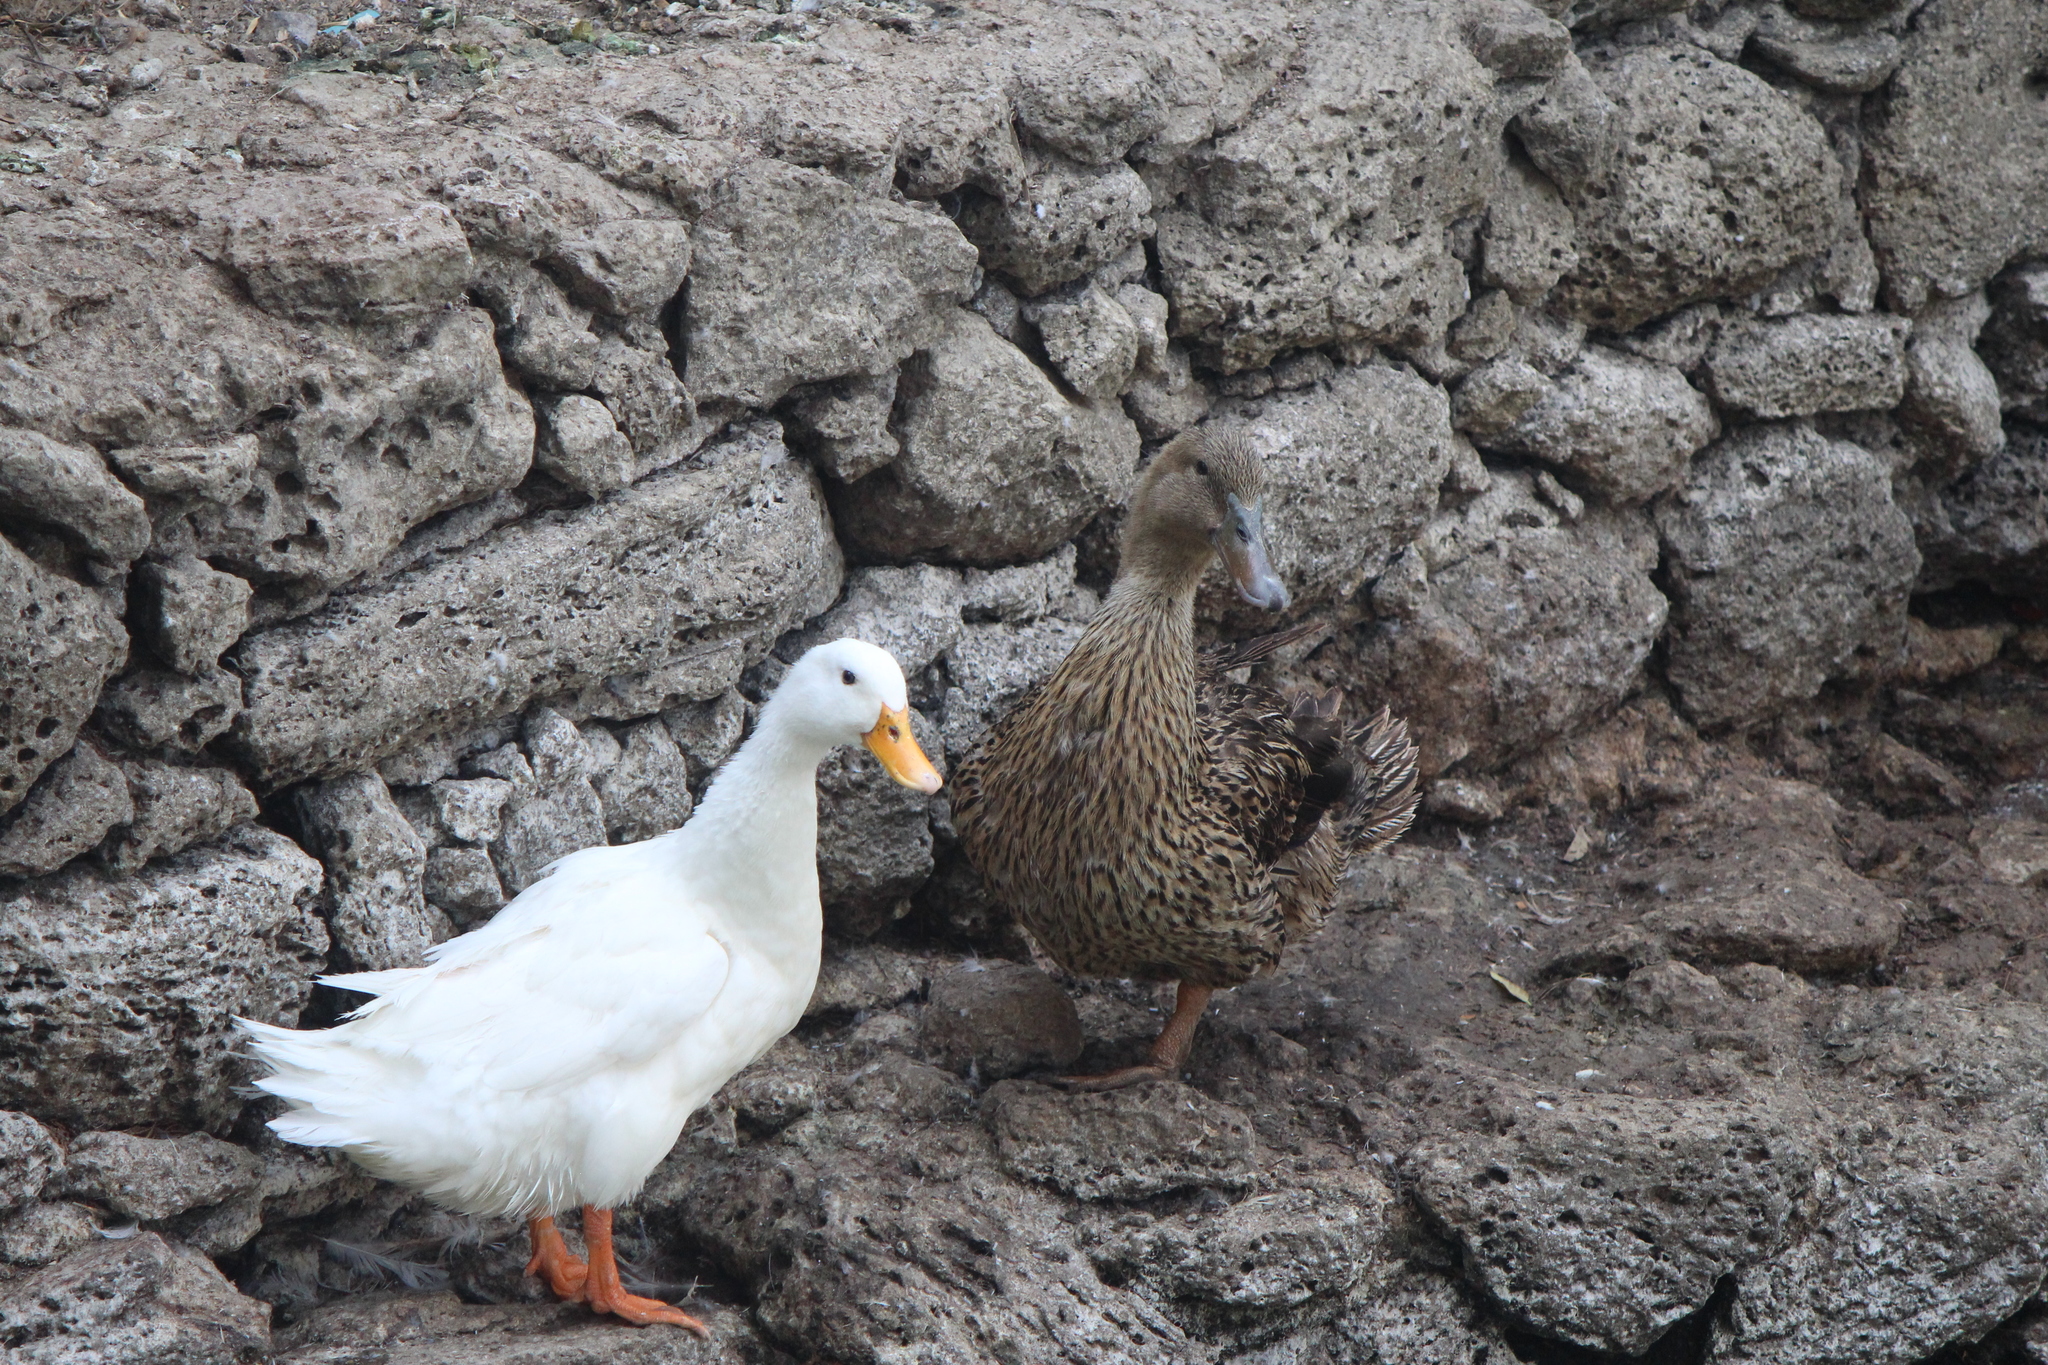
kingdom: Animalia
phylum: Chordata
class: Aves
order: Anseriformes
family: Anatidae
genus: Anas
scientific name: Anas platyrhynchos
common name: Mallard
